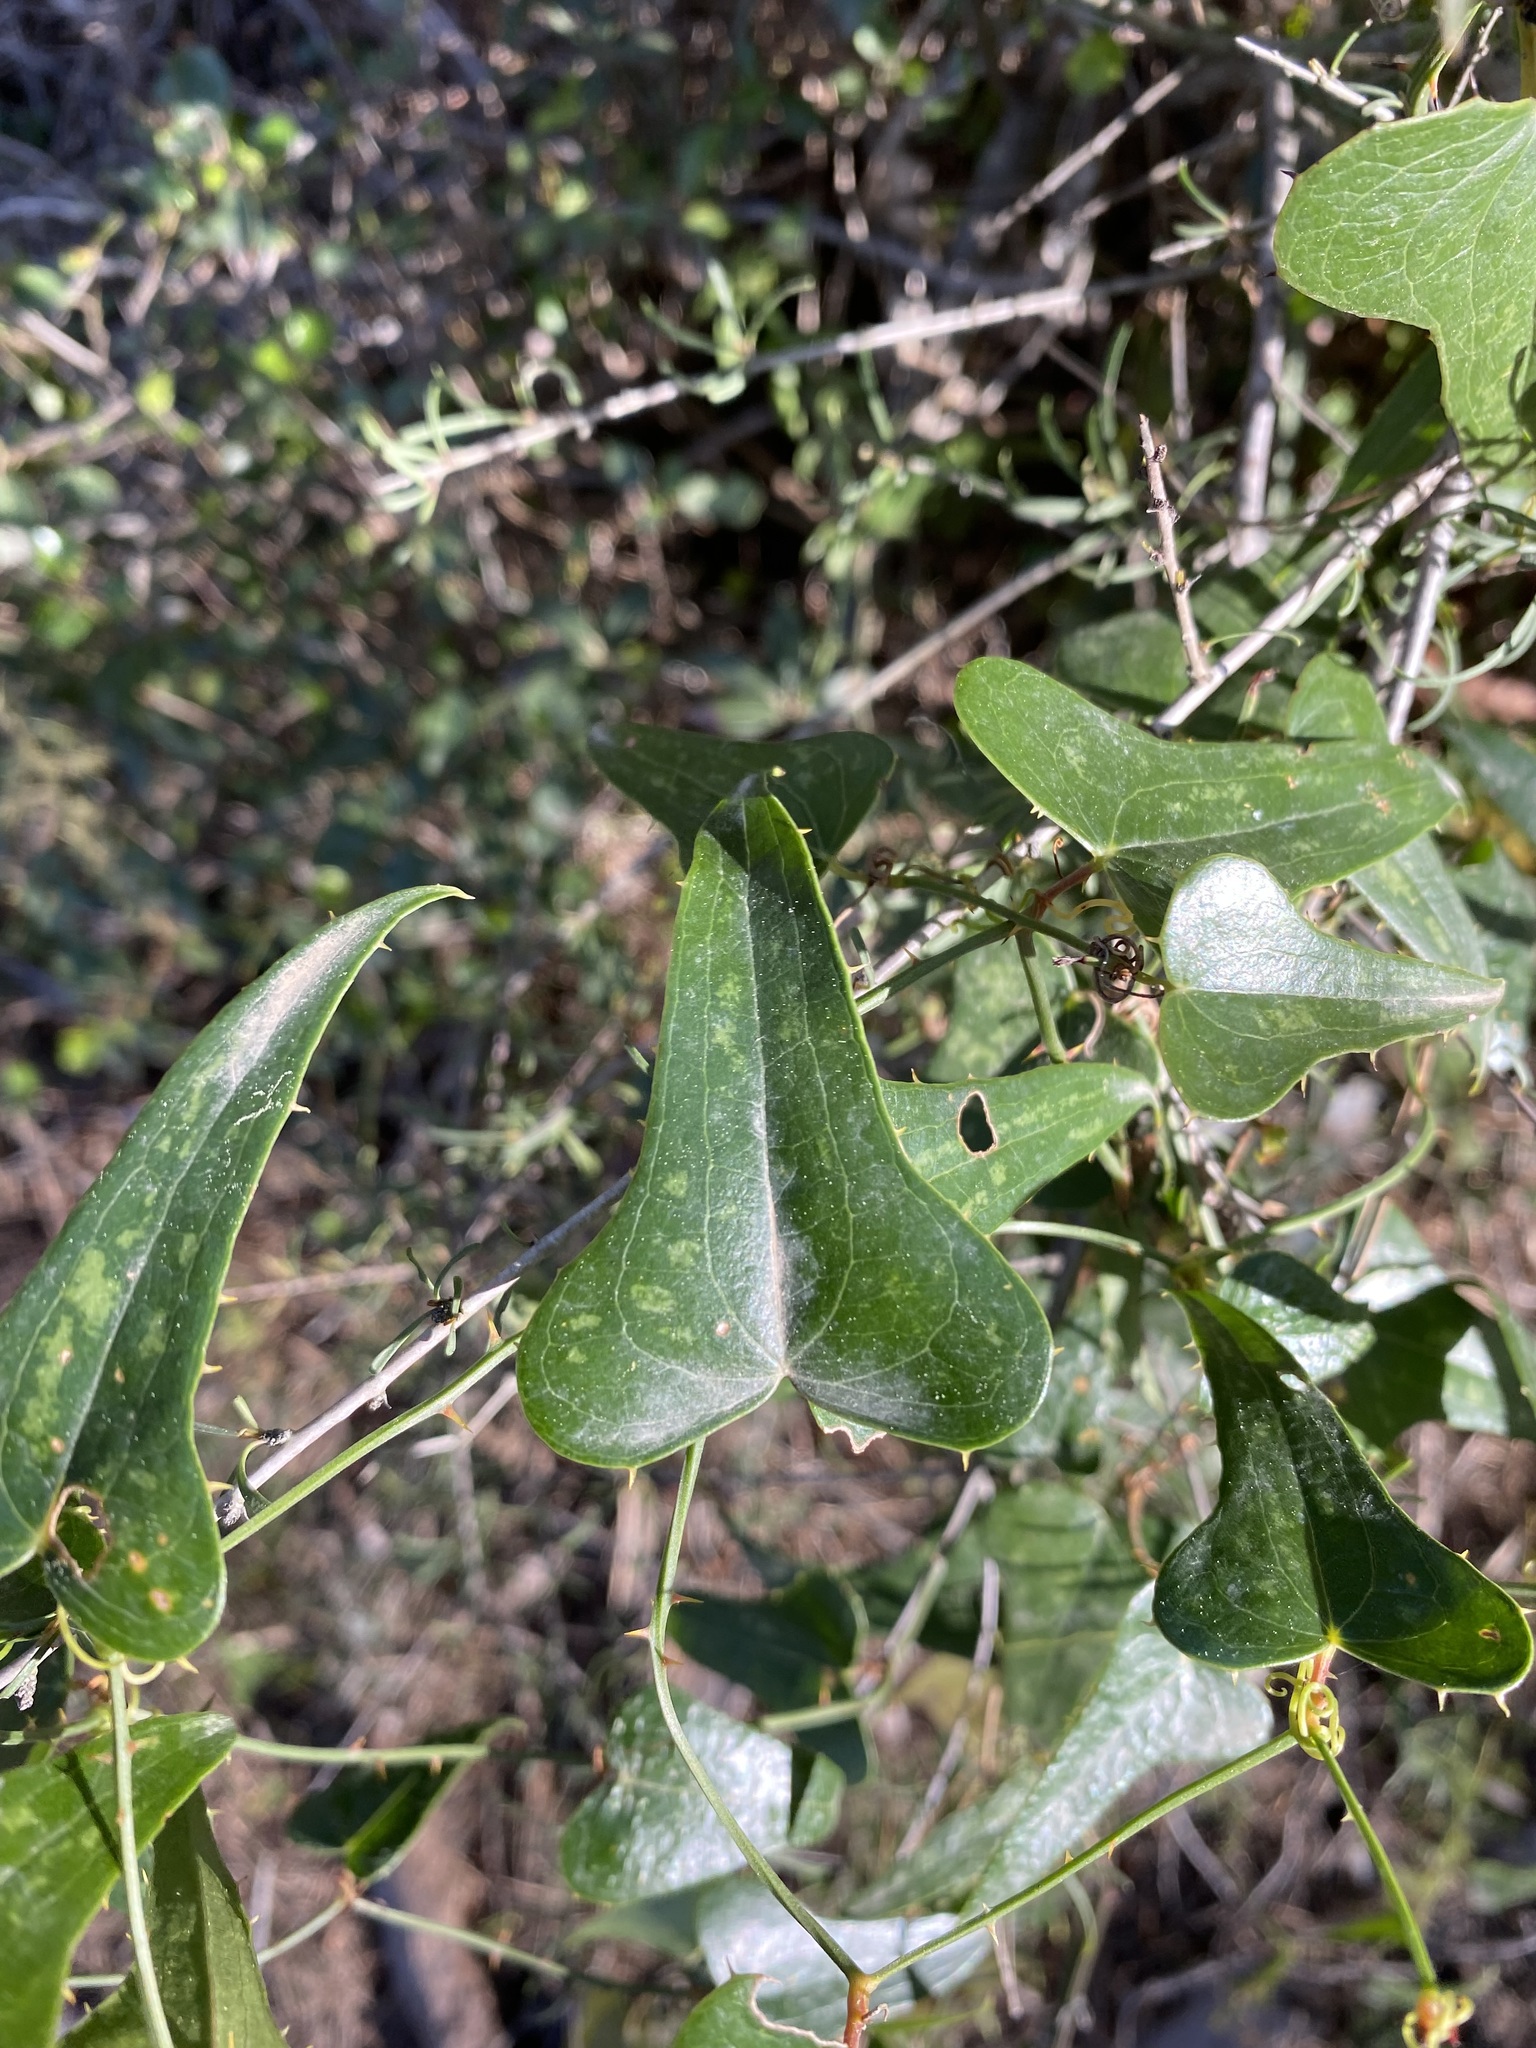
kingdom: Plantae
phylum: Tracheophyta
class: Liliopsida
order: Liliales
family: Smilacaceae
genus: Smilax
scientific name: Smilax aspera
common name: Common smilax
